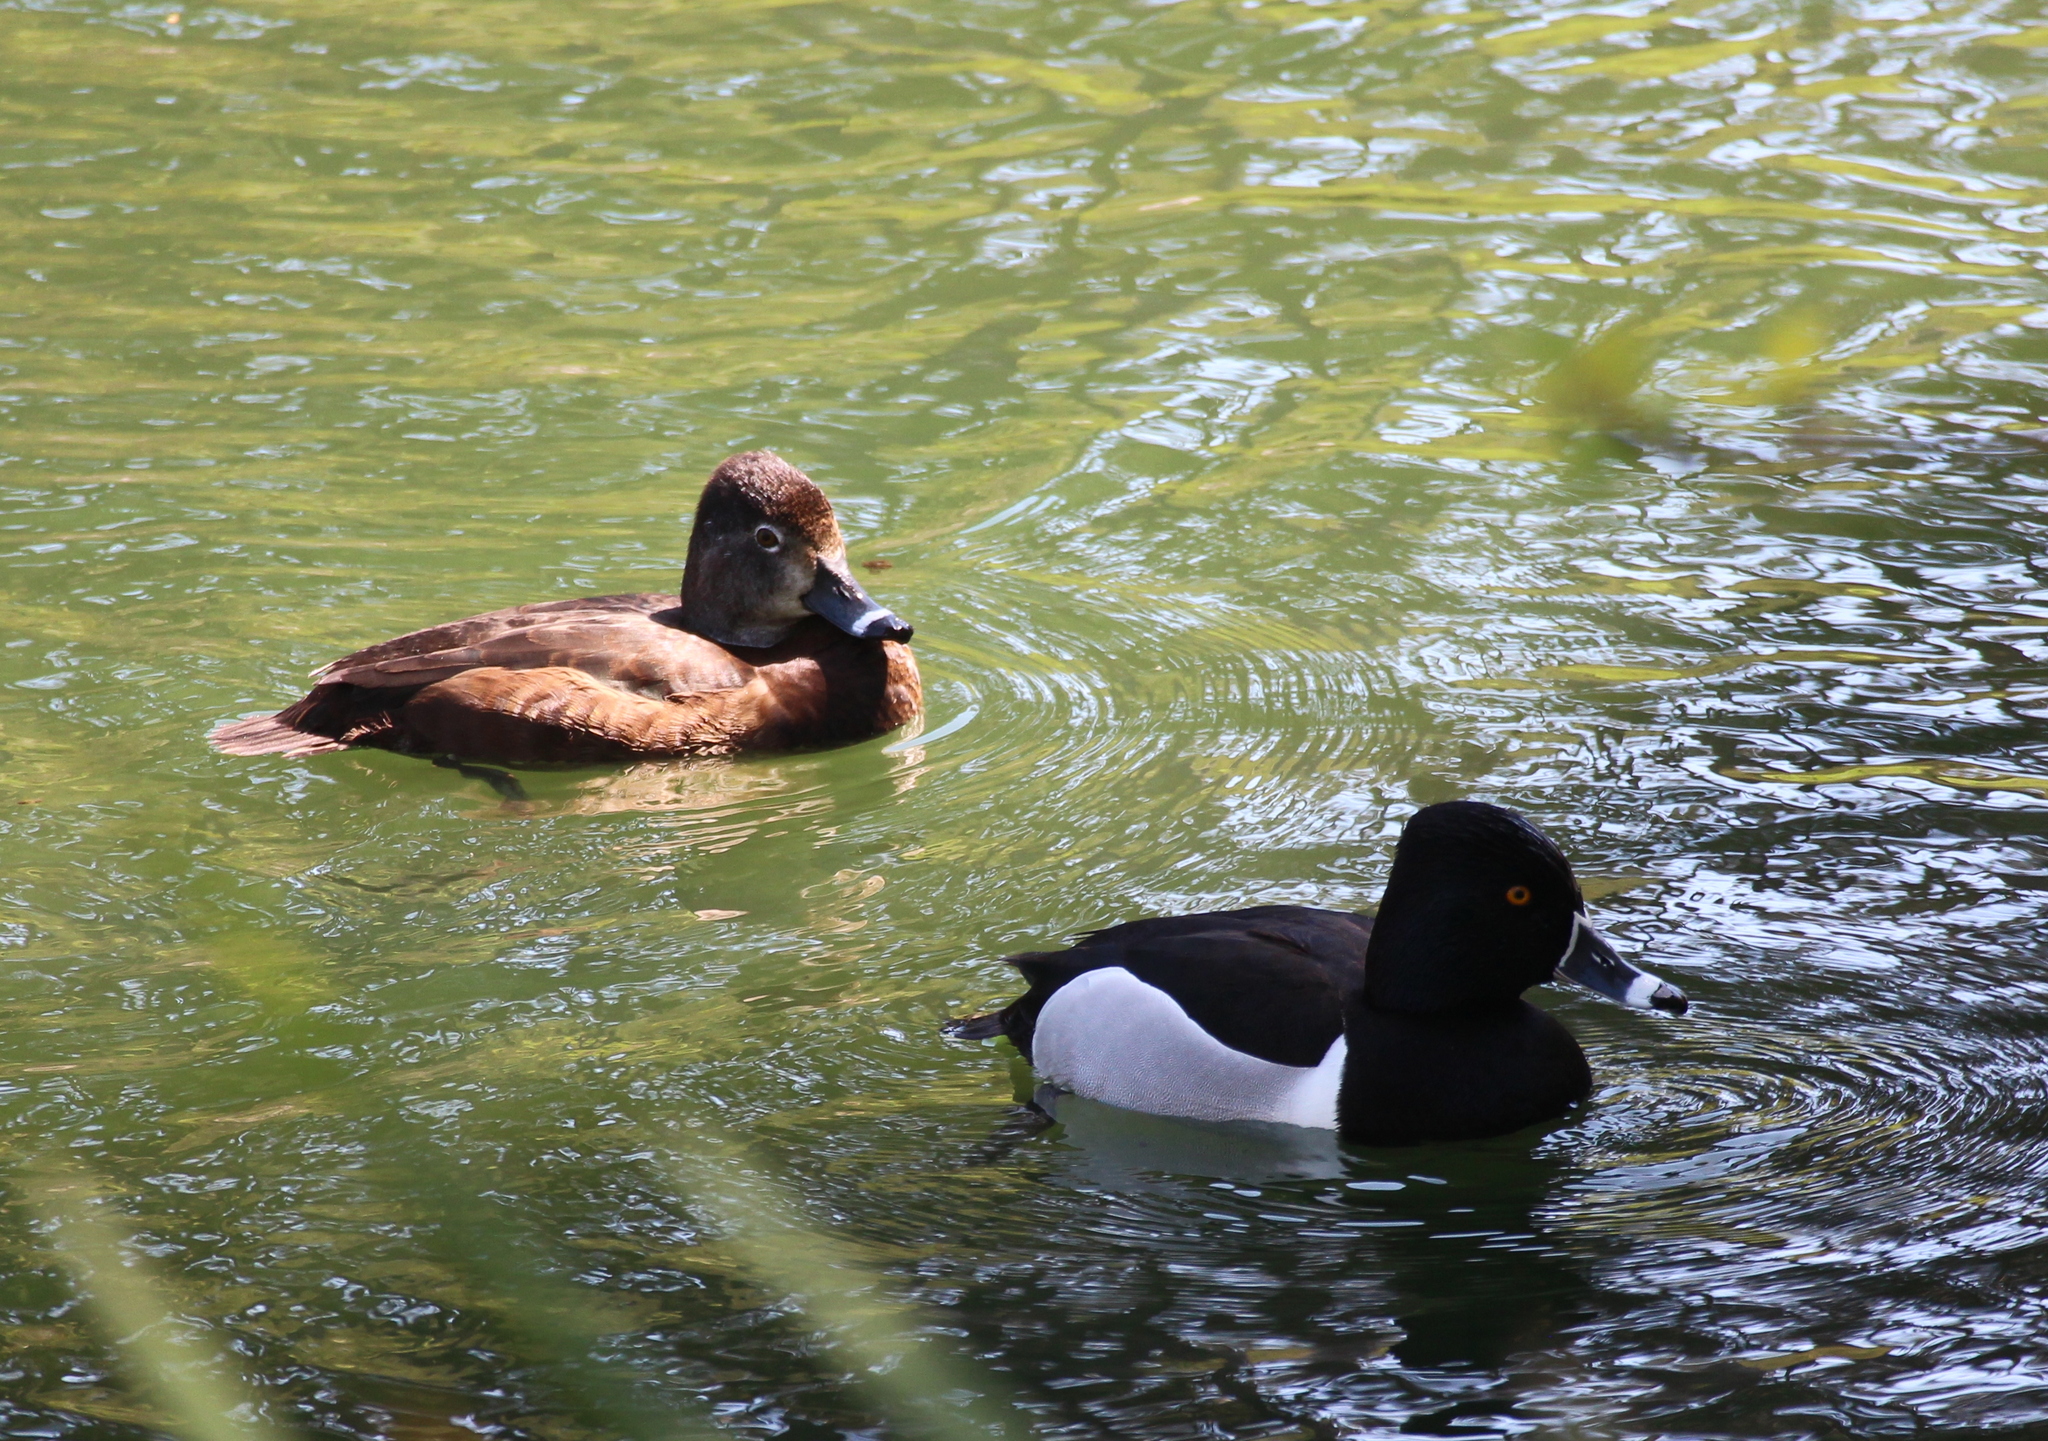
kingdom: Animalia
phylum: Chordata
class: Aves
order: Anseriformes
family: Anatidae
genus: Aythya
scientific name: Aythya collaris
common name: Ring-necked duck
